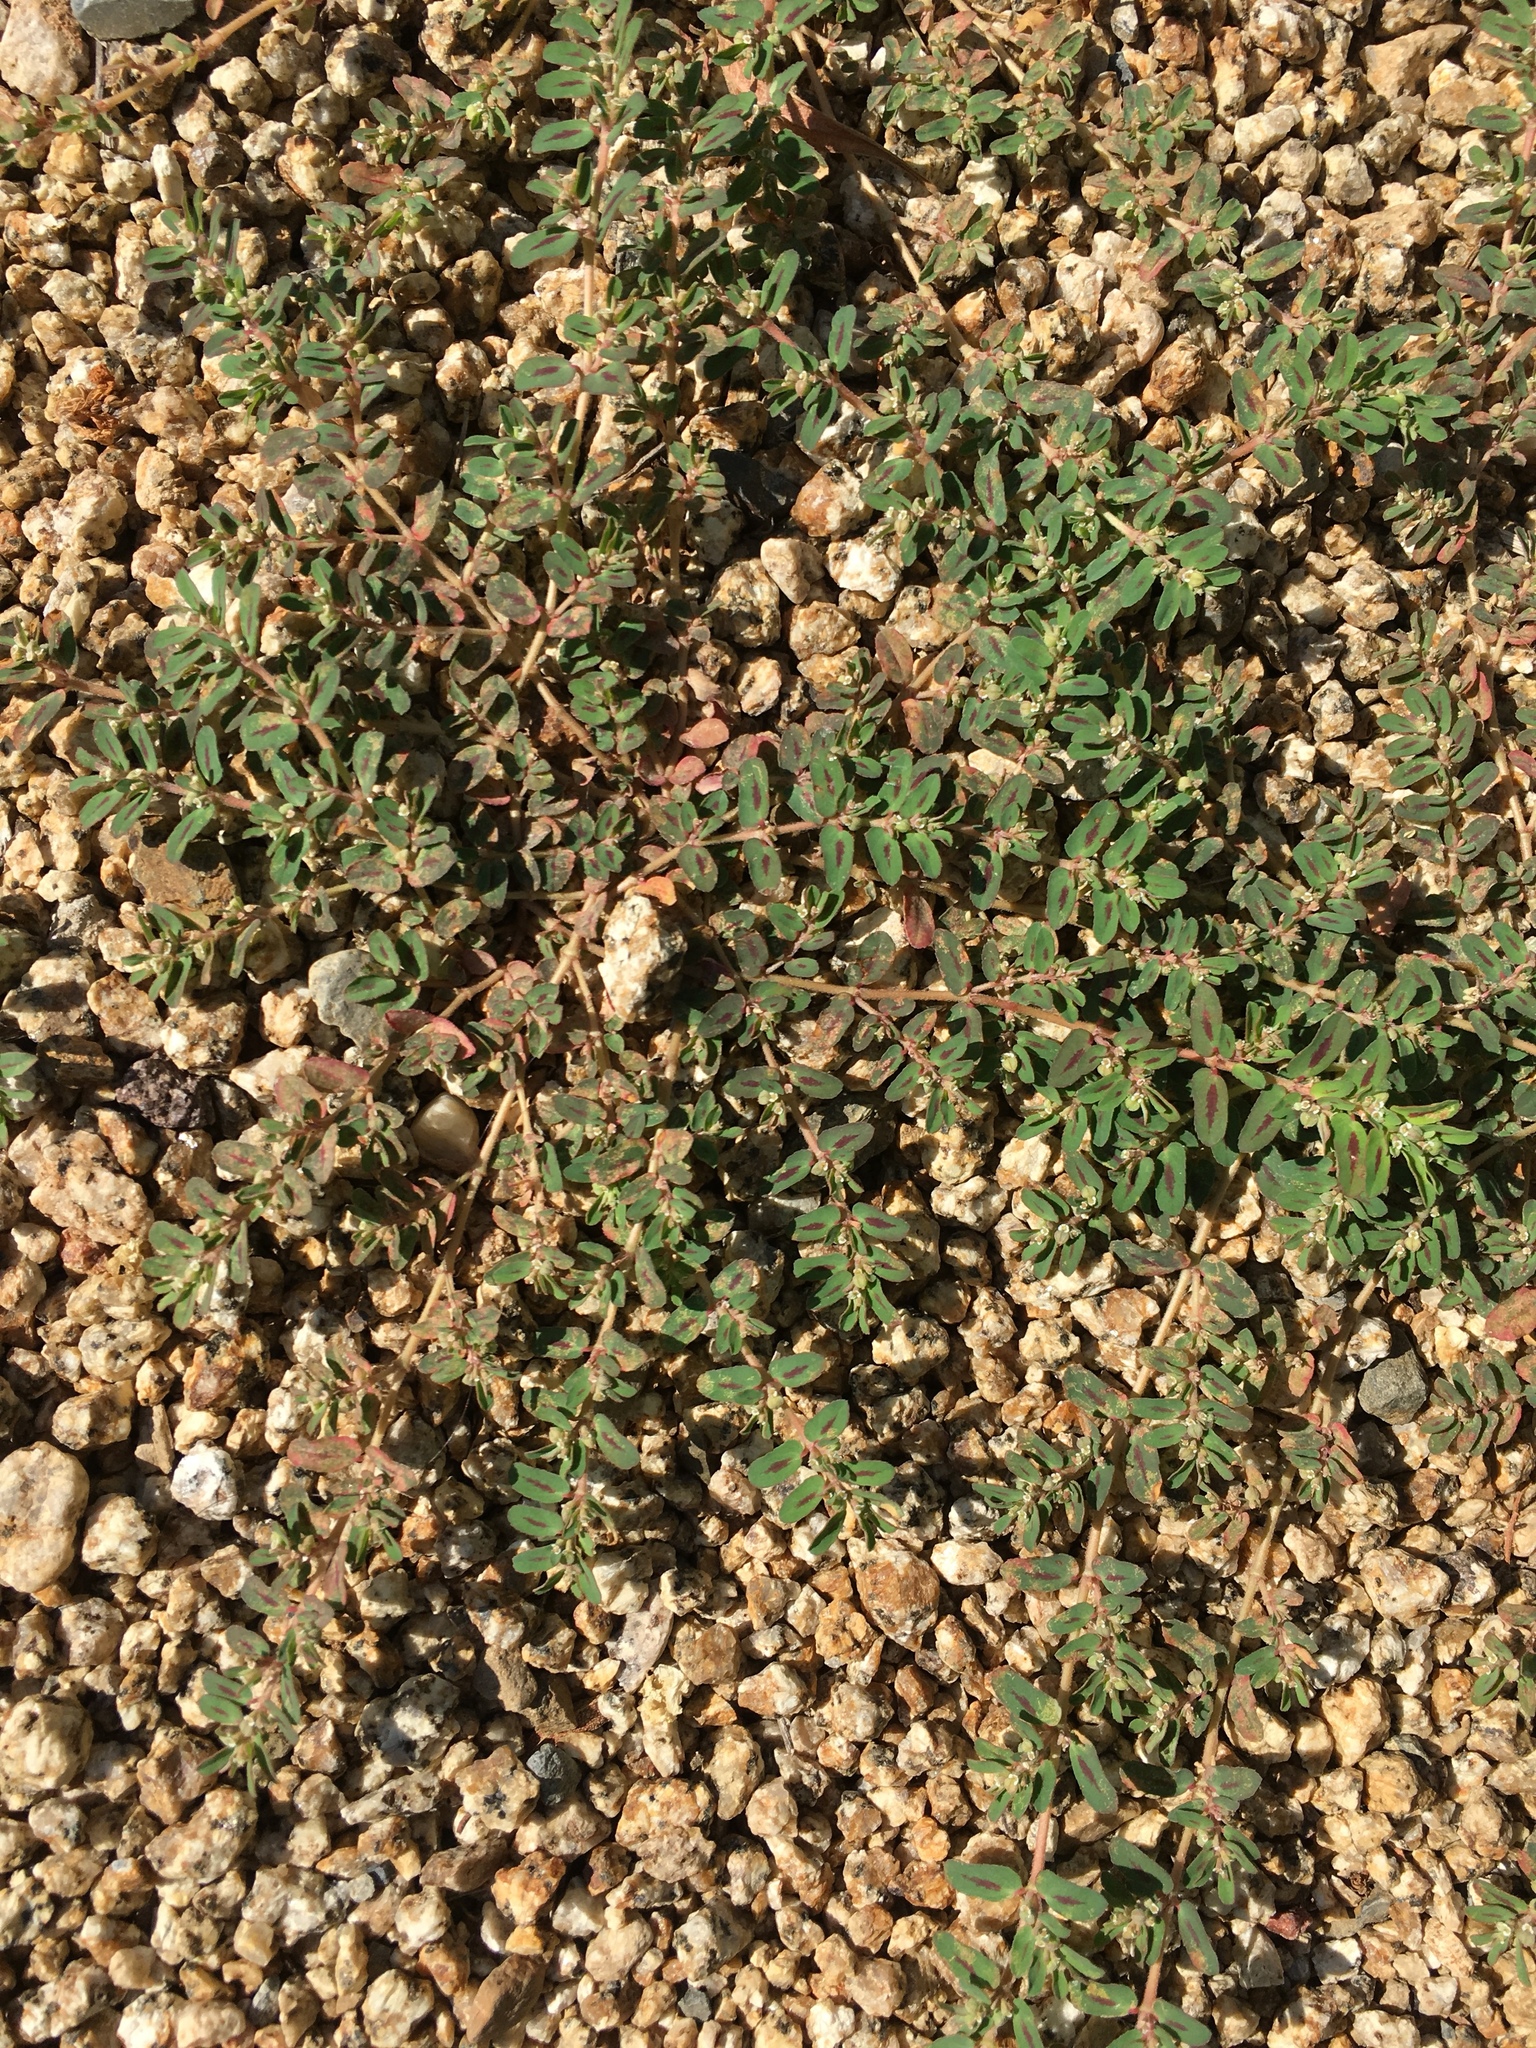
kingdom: Plantae
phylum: Tracheophyta
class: Magnoliopsida
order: Malpighiales
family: Euphorbiaceae
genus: Euphorbia
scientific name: Euphorbia maculata
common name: Spotted spurge
